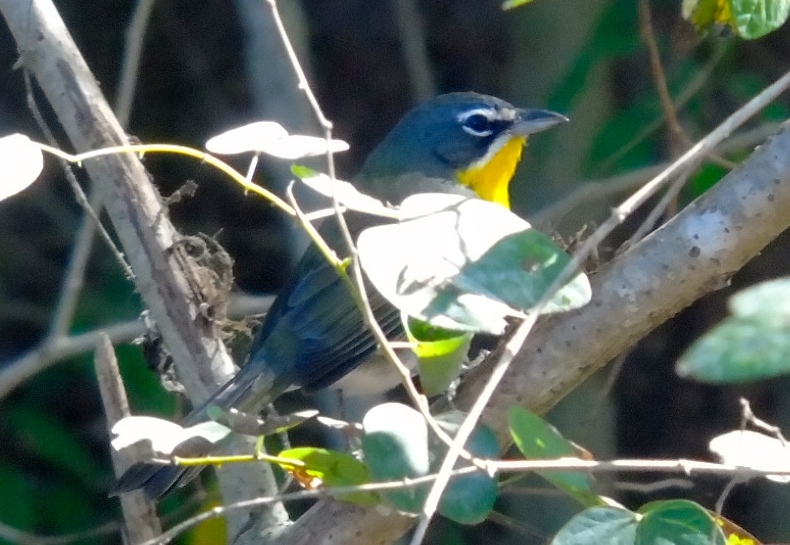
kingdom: Animalia
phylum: Chordata
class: Aves
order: Passeriformes
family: Parulidae
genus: Icteria
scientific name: Icteria virens
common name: Yellow-breasted chat
